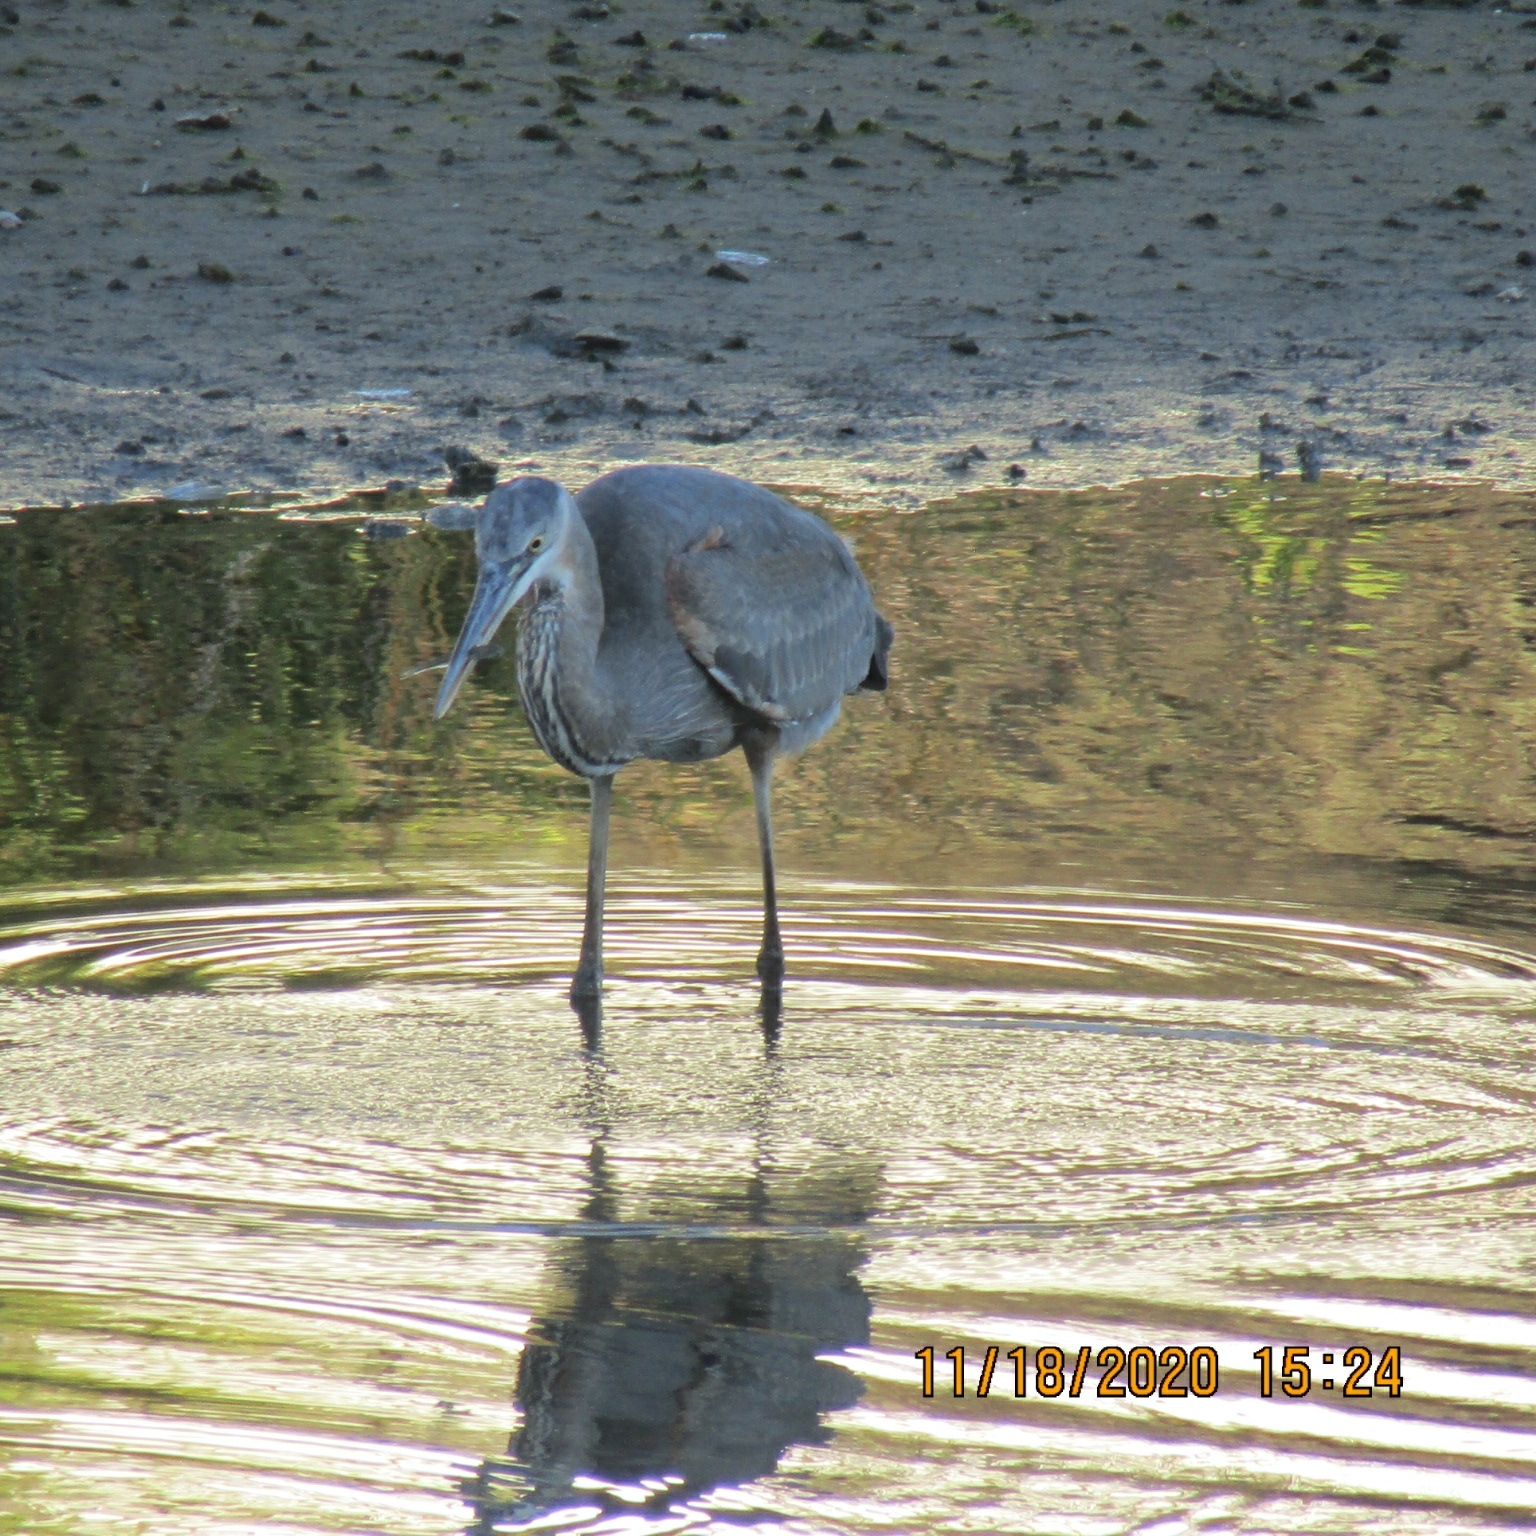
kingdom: Animalia
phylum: Chordata
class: Aves
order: Pelecaniformes
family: Ardeidae
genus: Ardea
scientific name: Ardea herodias
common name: Great blue heron
